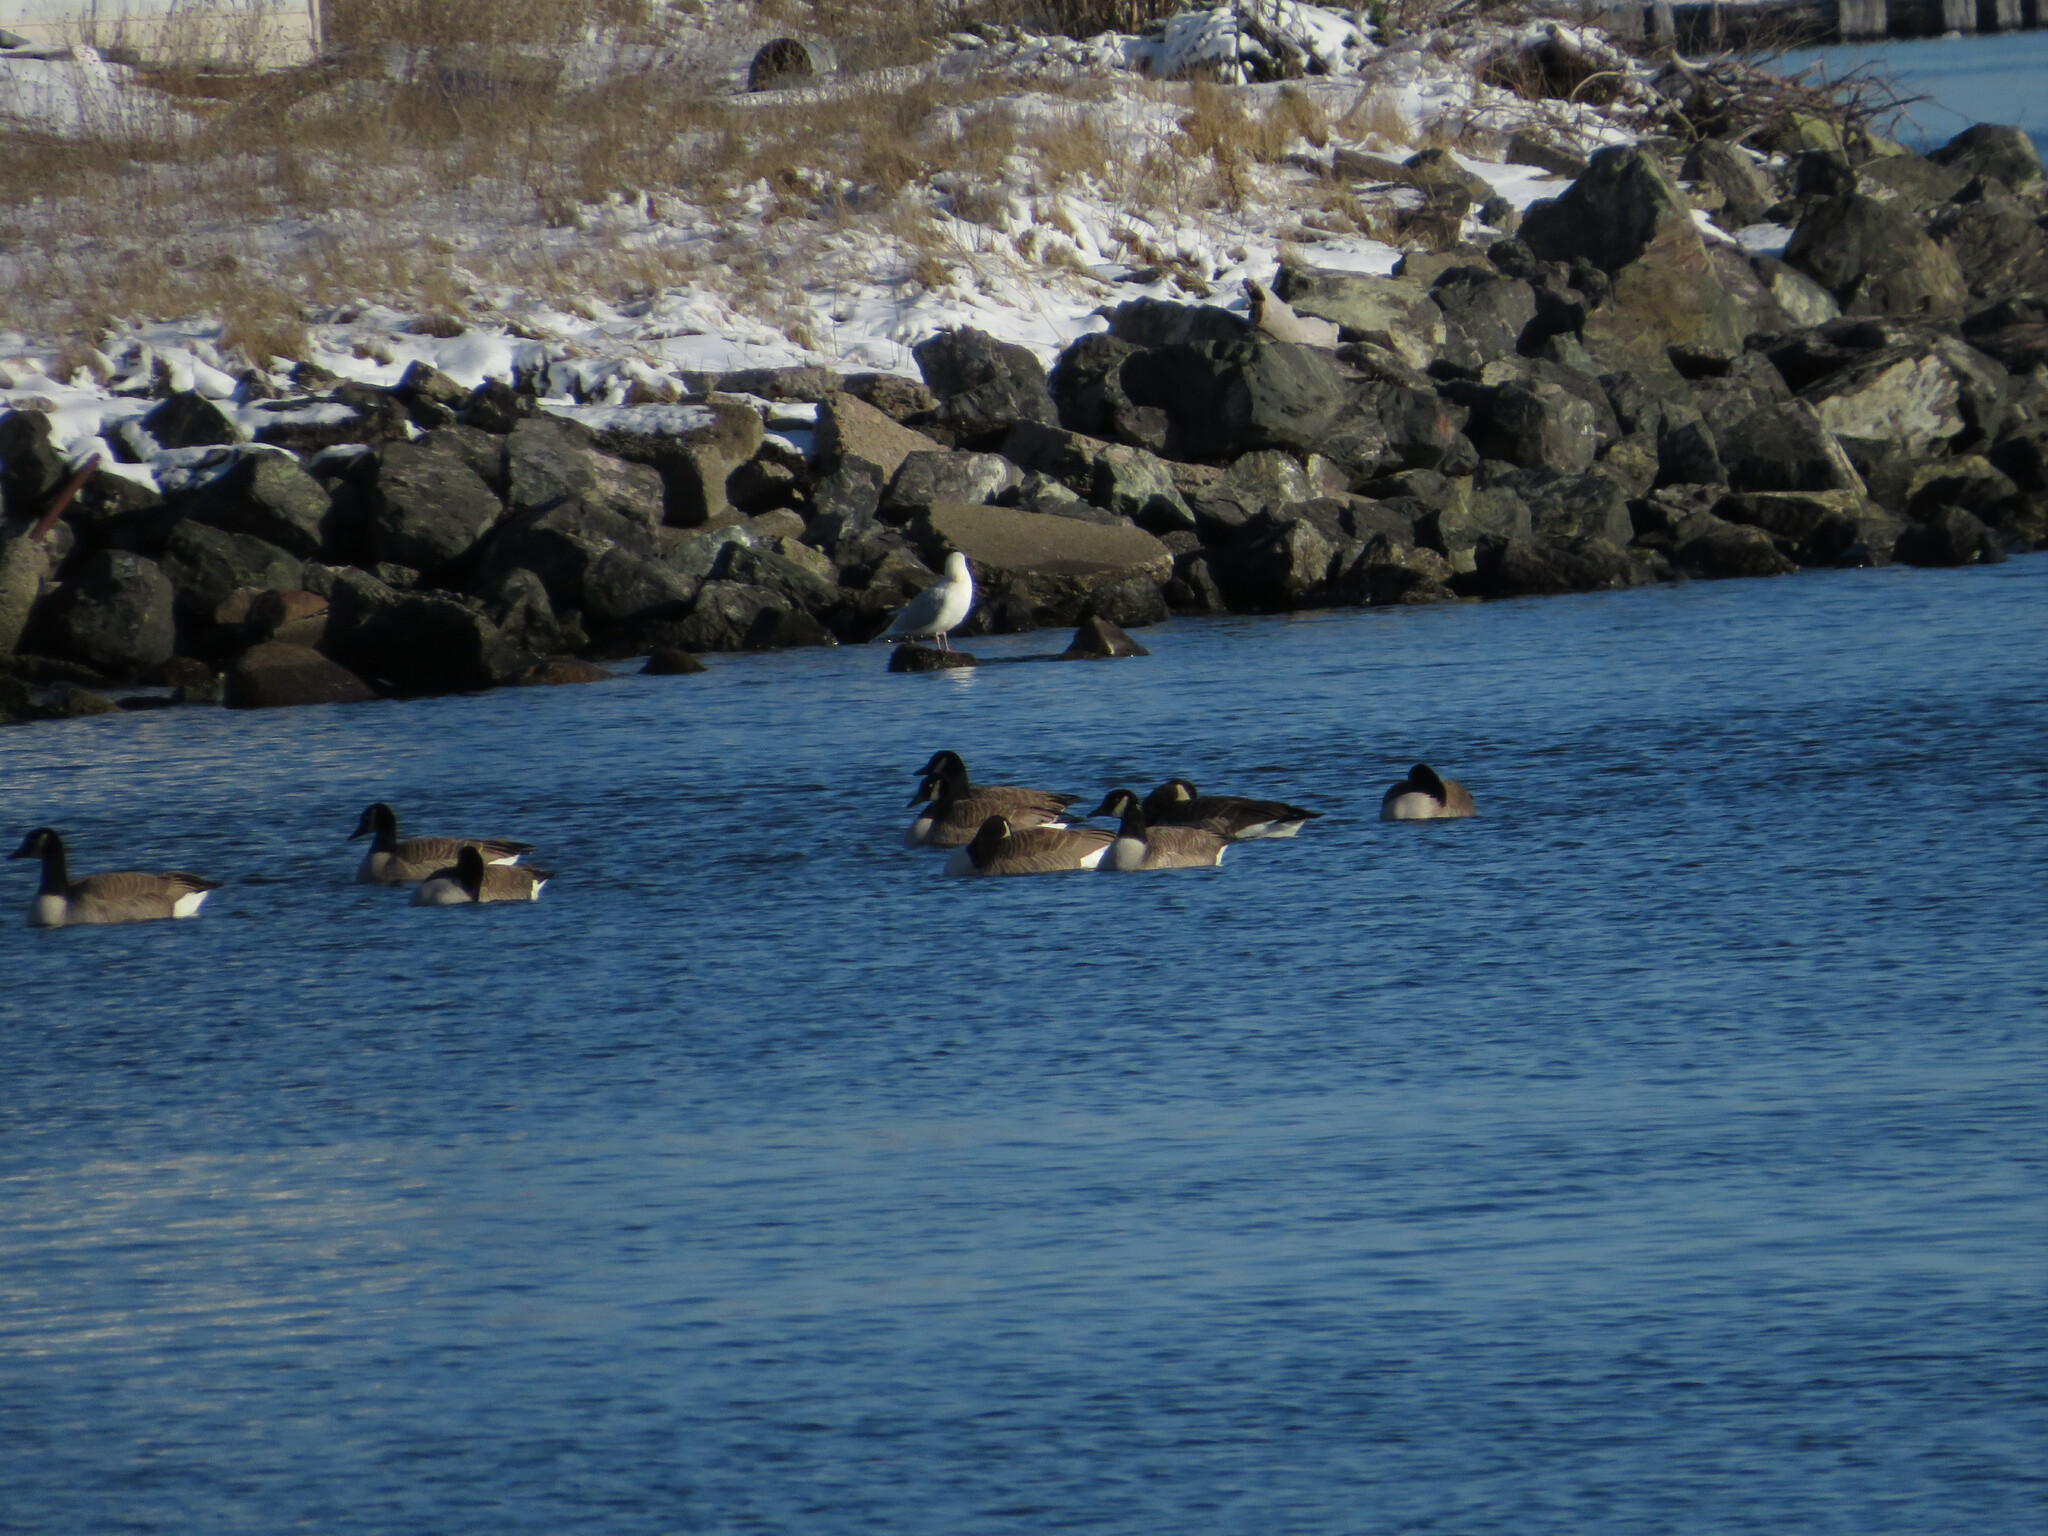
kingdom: Animalia
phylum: Chordata
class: Aves
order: Anseriformes
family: Anatidae
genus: Branta
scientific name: Branta canadensis
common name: Canada goose
